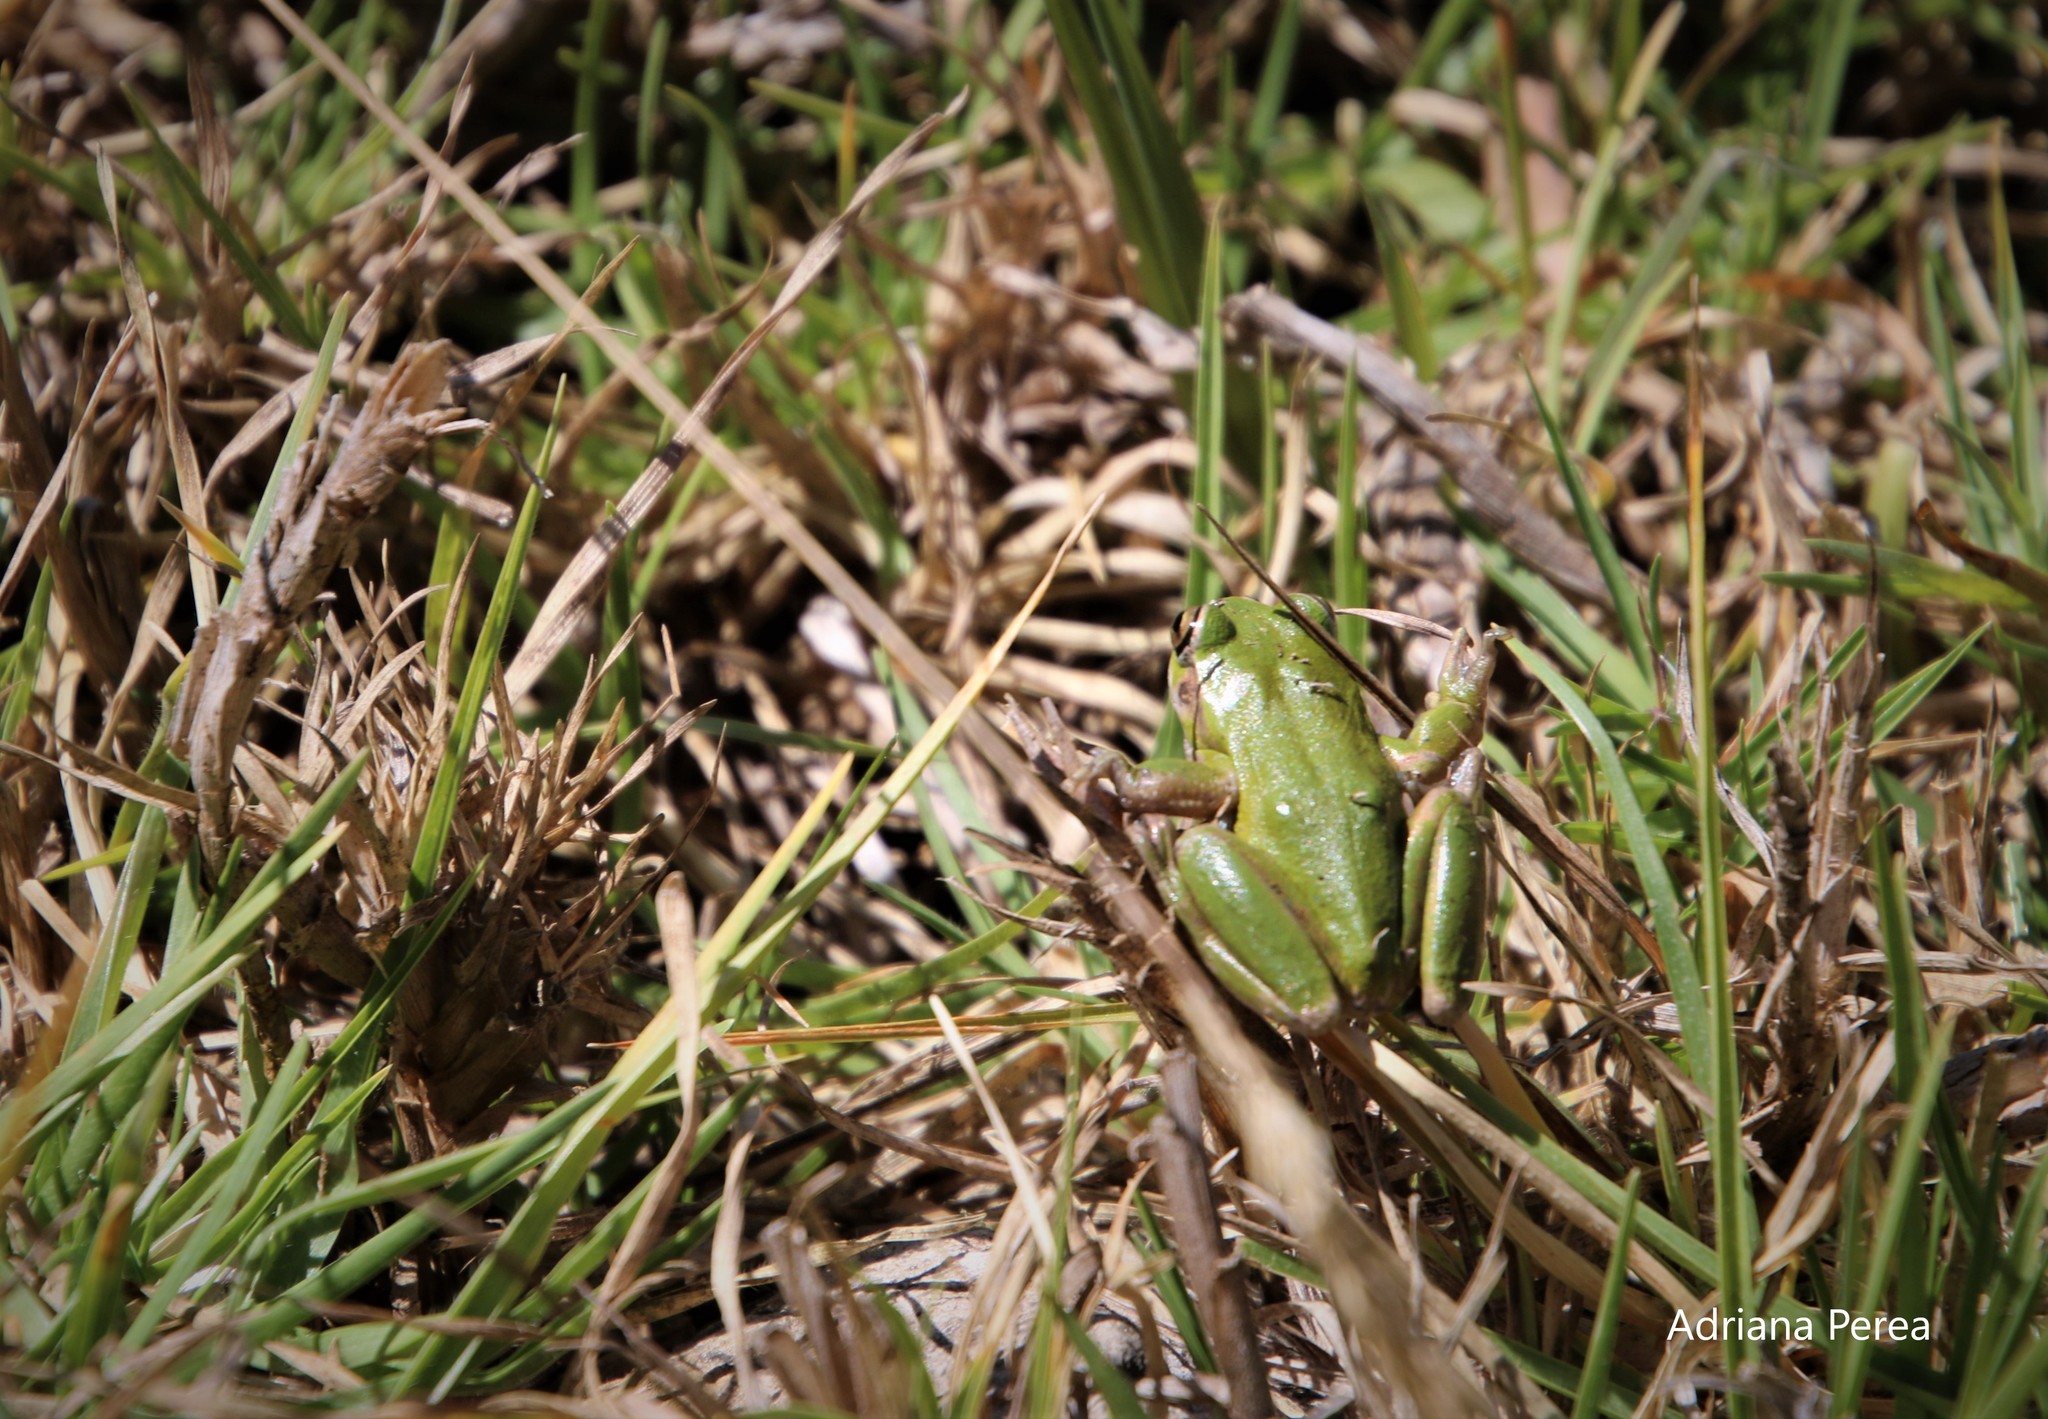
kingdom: Animalia
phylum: Chordata
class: Amphibia
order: Anura
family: Hylidae
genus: Dendropsophus
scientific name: Dendropsophus molitor
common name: Green dotted treefrog
